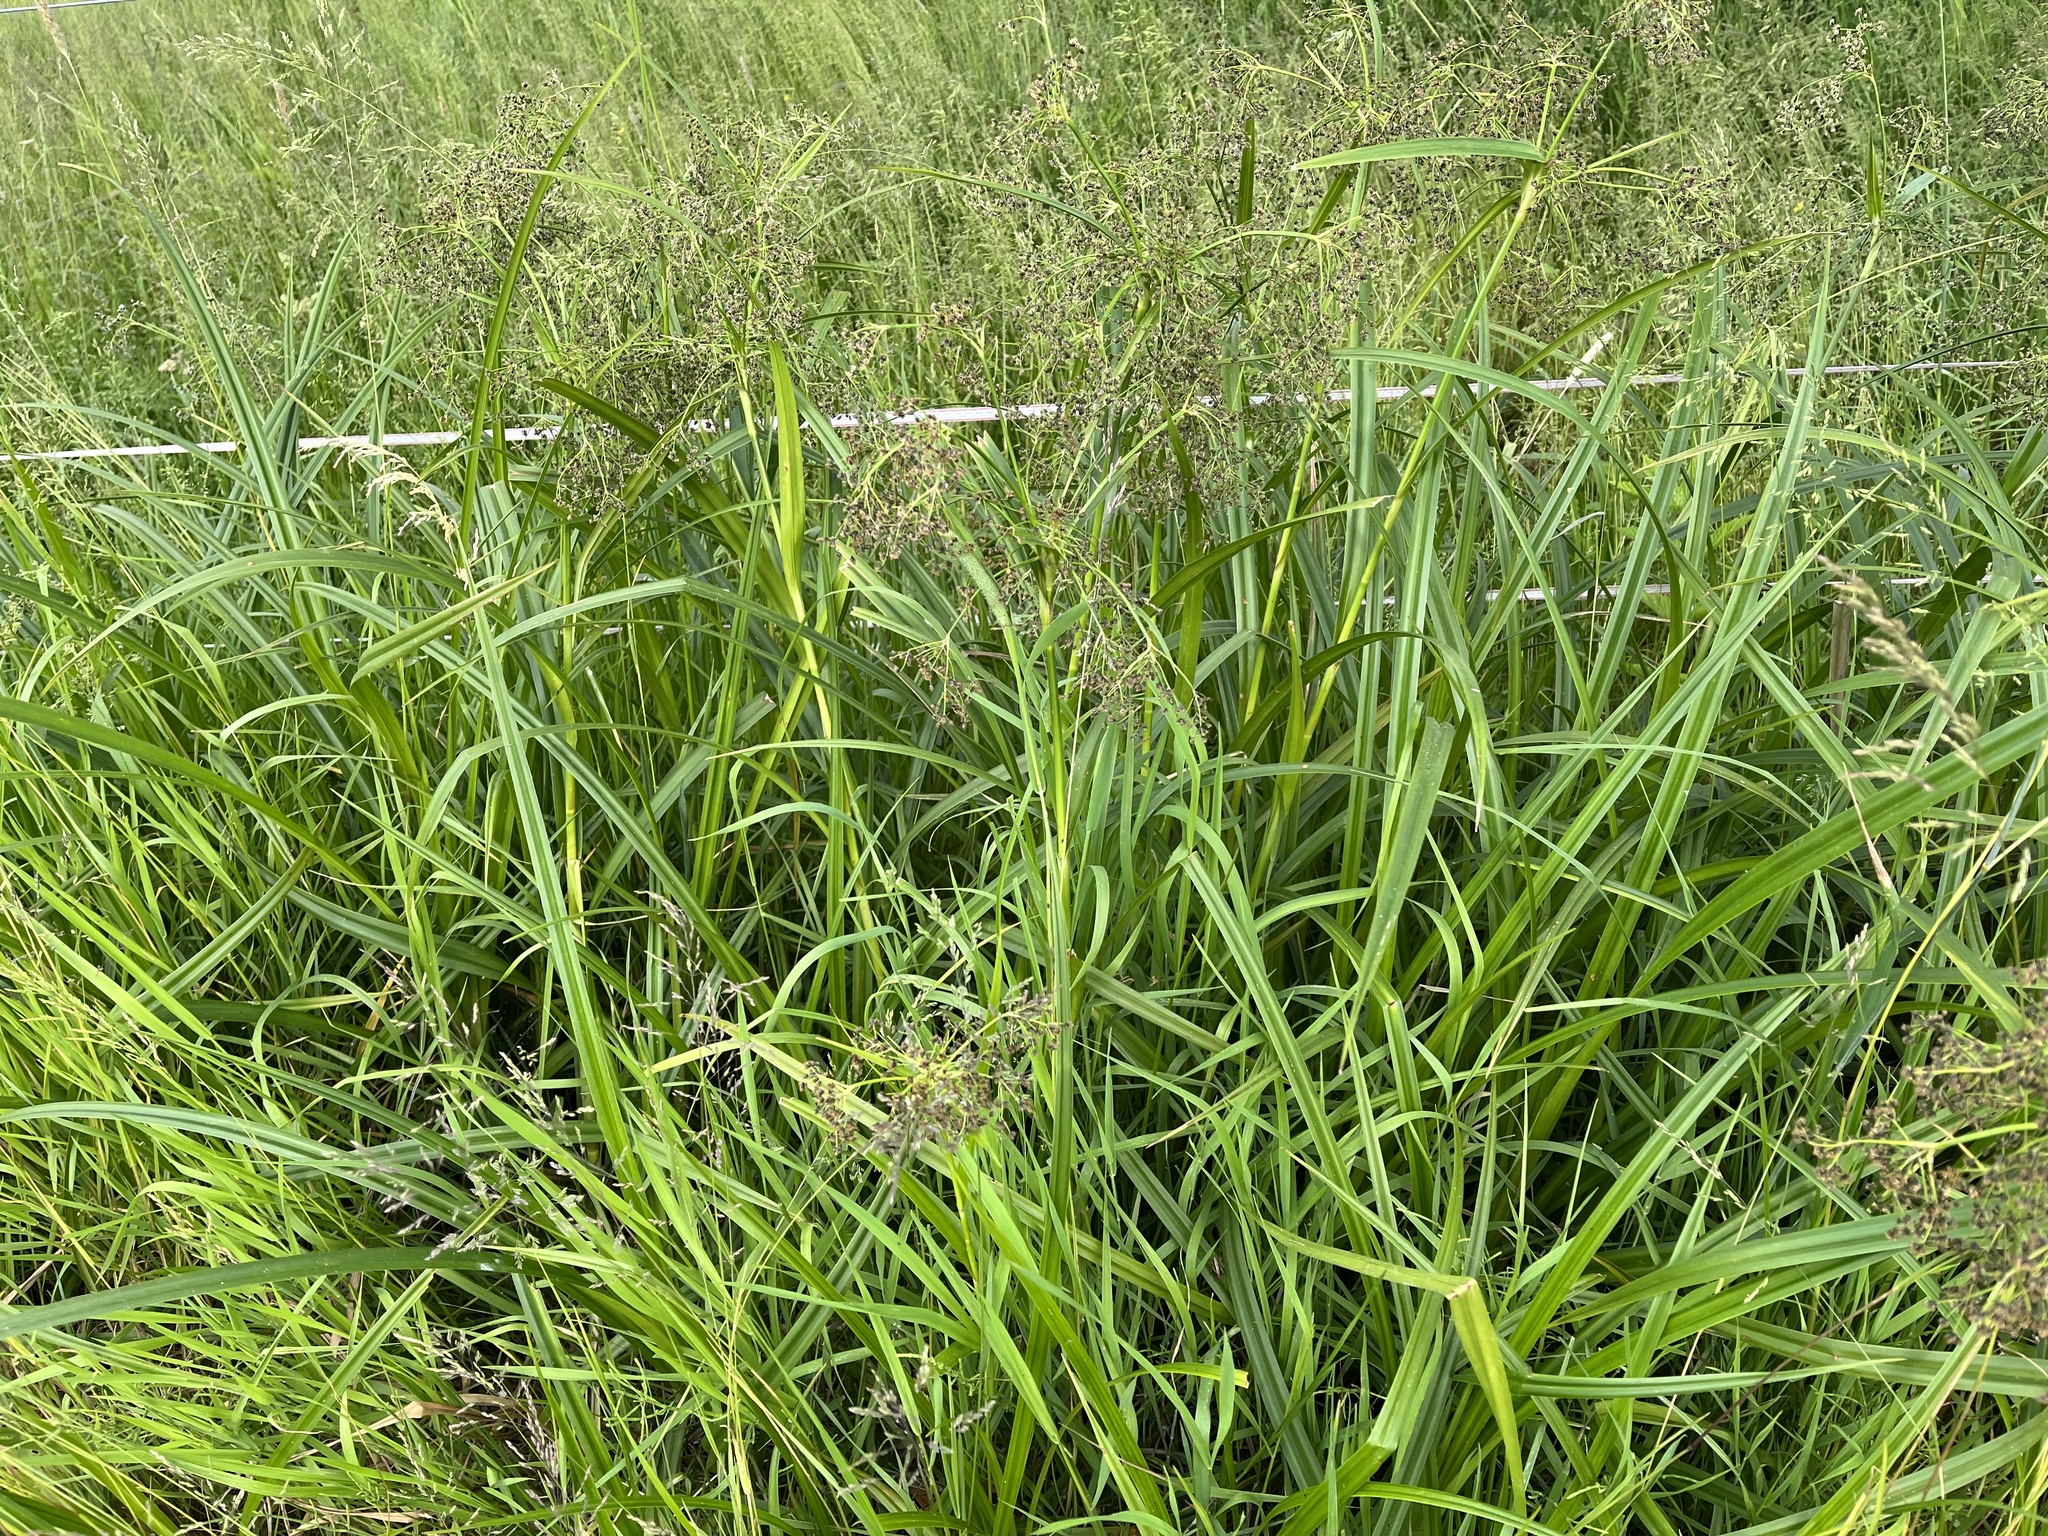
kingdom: Plantae
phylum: Tracheophyta
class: Liliopsida
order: Poales
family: Cyperaceae
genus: Scirpus
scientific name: Scirpus sylvaticus
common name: Wood club-rush
